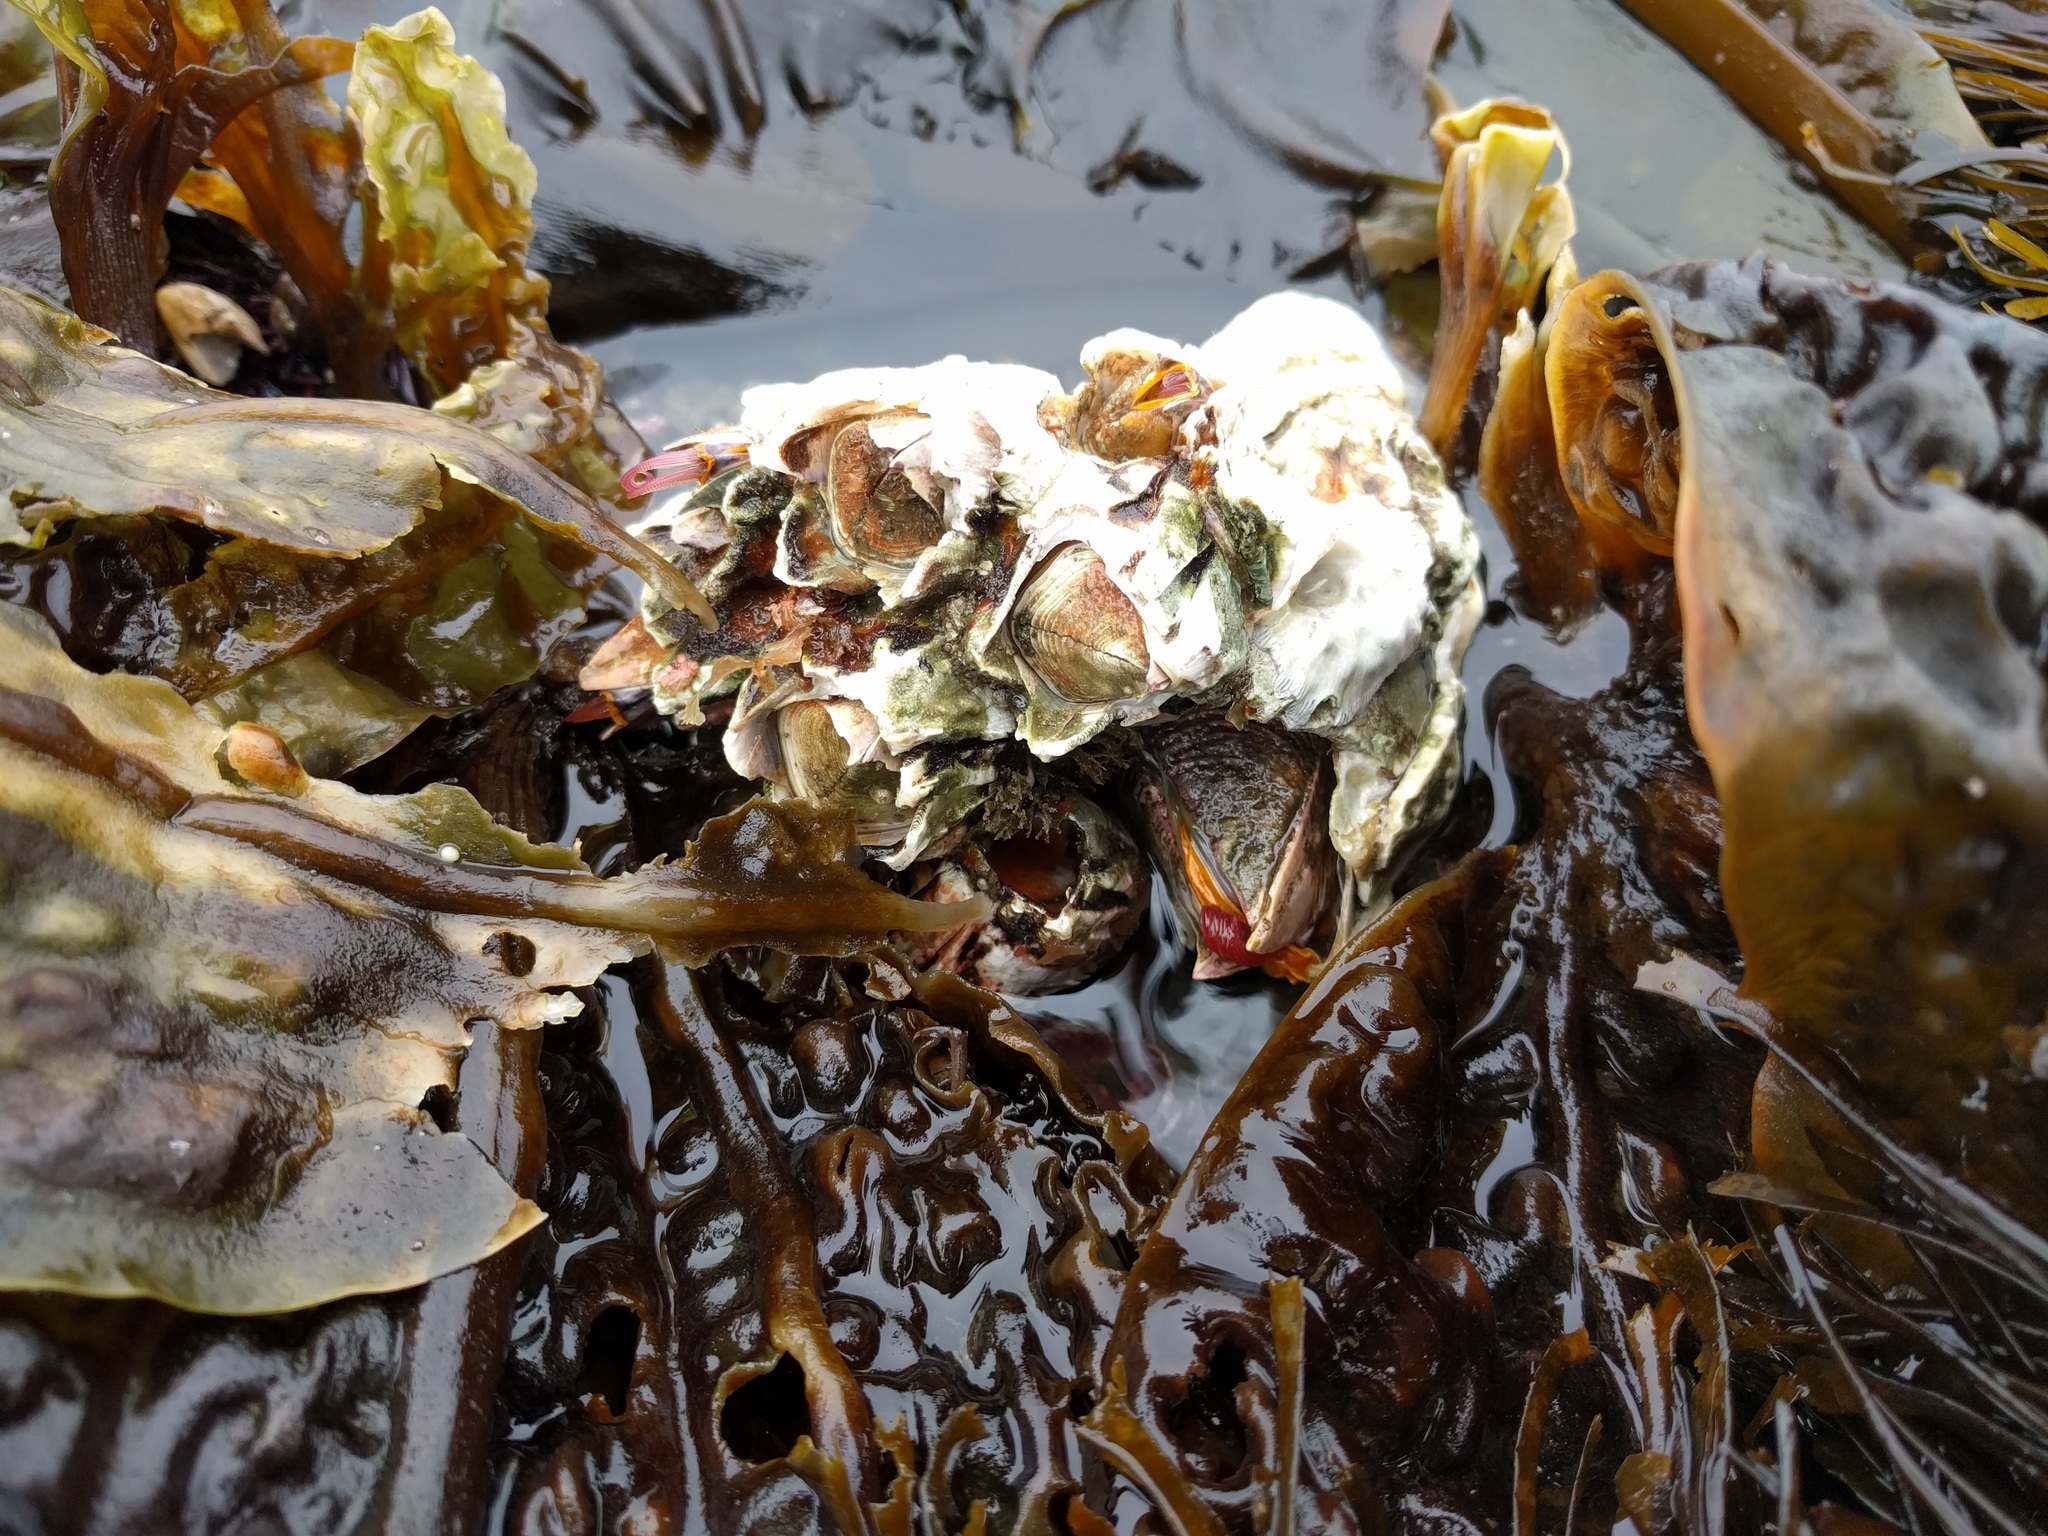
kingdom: Animalia
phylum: Arthropoda
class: Maxillopoda
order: Sessilia
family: Balanidae
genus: Balanus
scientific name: Balanus nubilus
